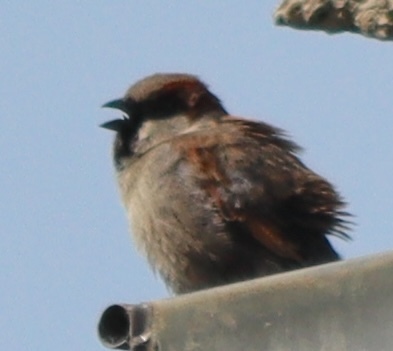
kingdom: Animalia
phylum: Chordata
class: Aves
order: Passeriformes
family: Passeridae
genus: Passer
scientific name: Passer domesticus
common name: House sparrow
